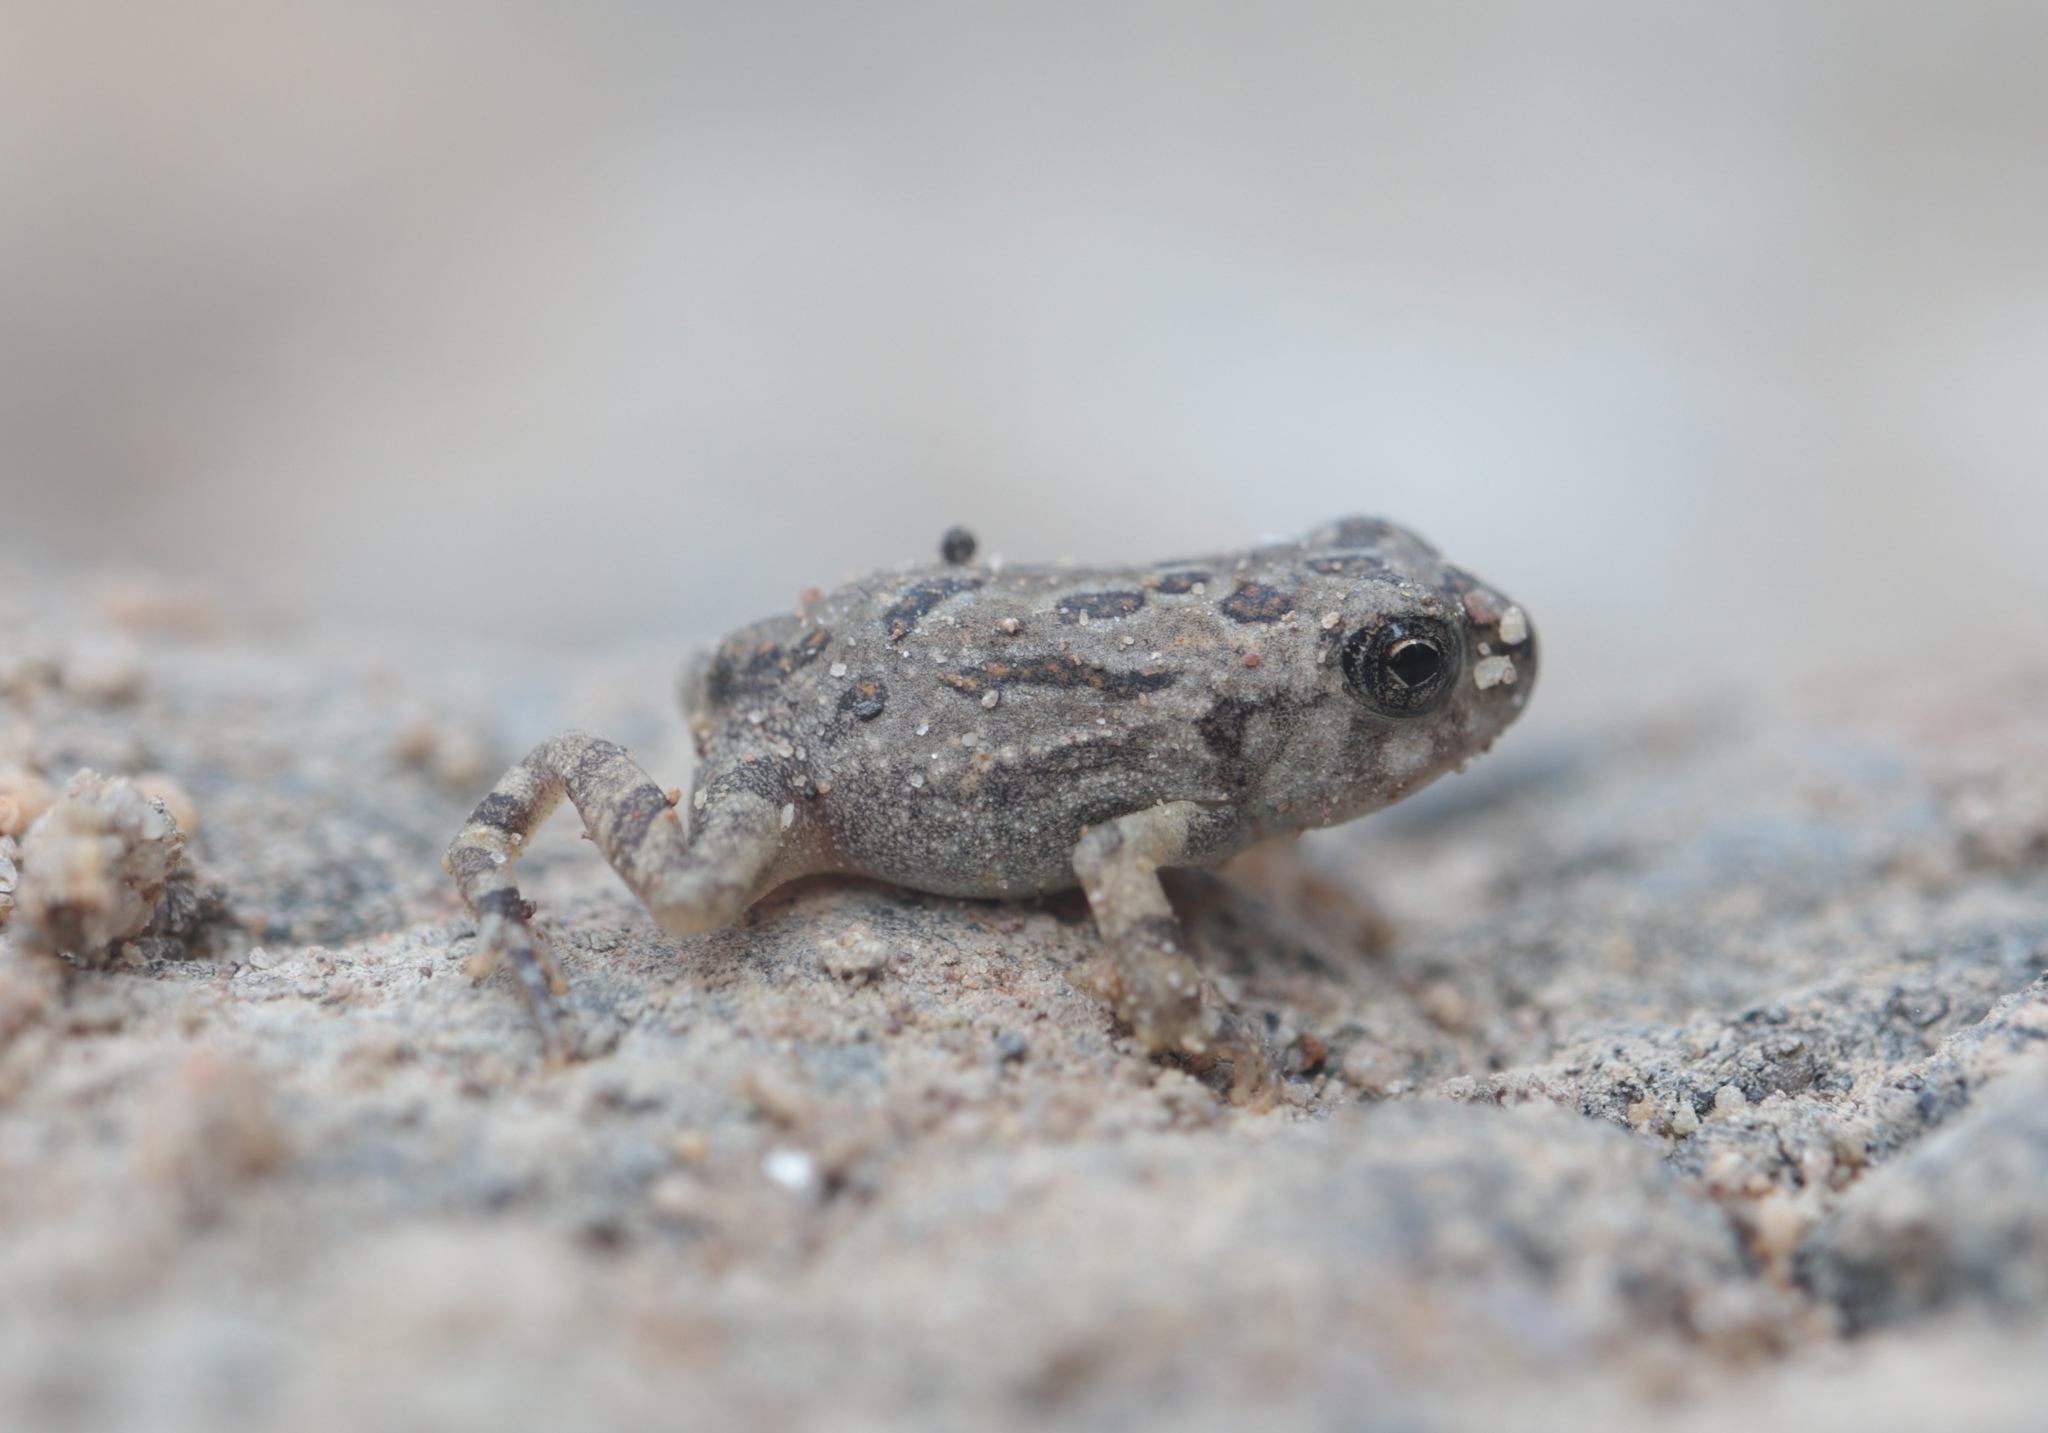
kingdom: Animalia
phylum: Chordata
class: Amphibia
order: Anura
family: Bufonidae
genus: Anaxyrus
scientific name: Anaxyrus fowleri
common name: Fowler's toad
